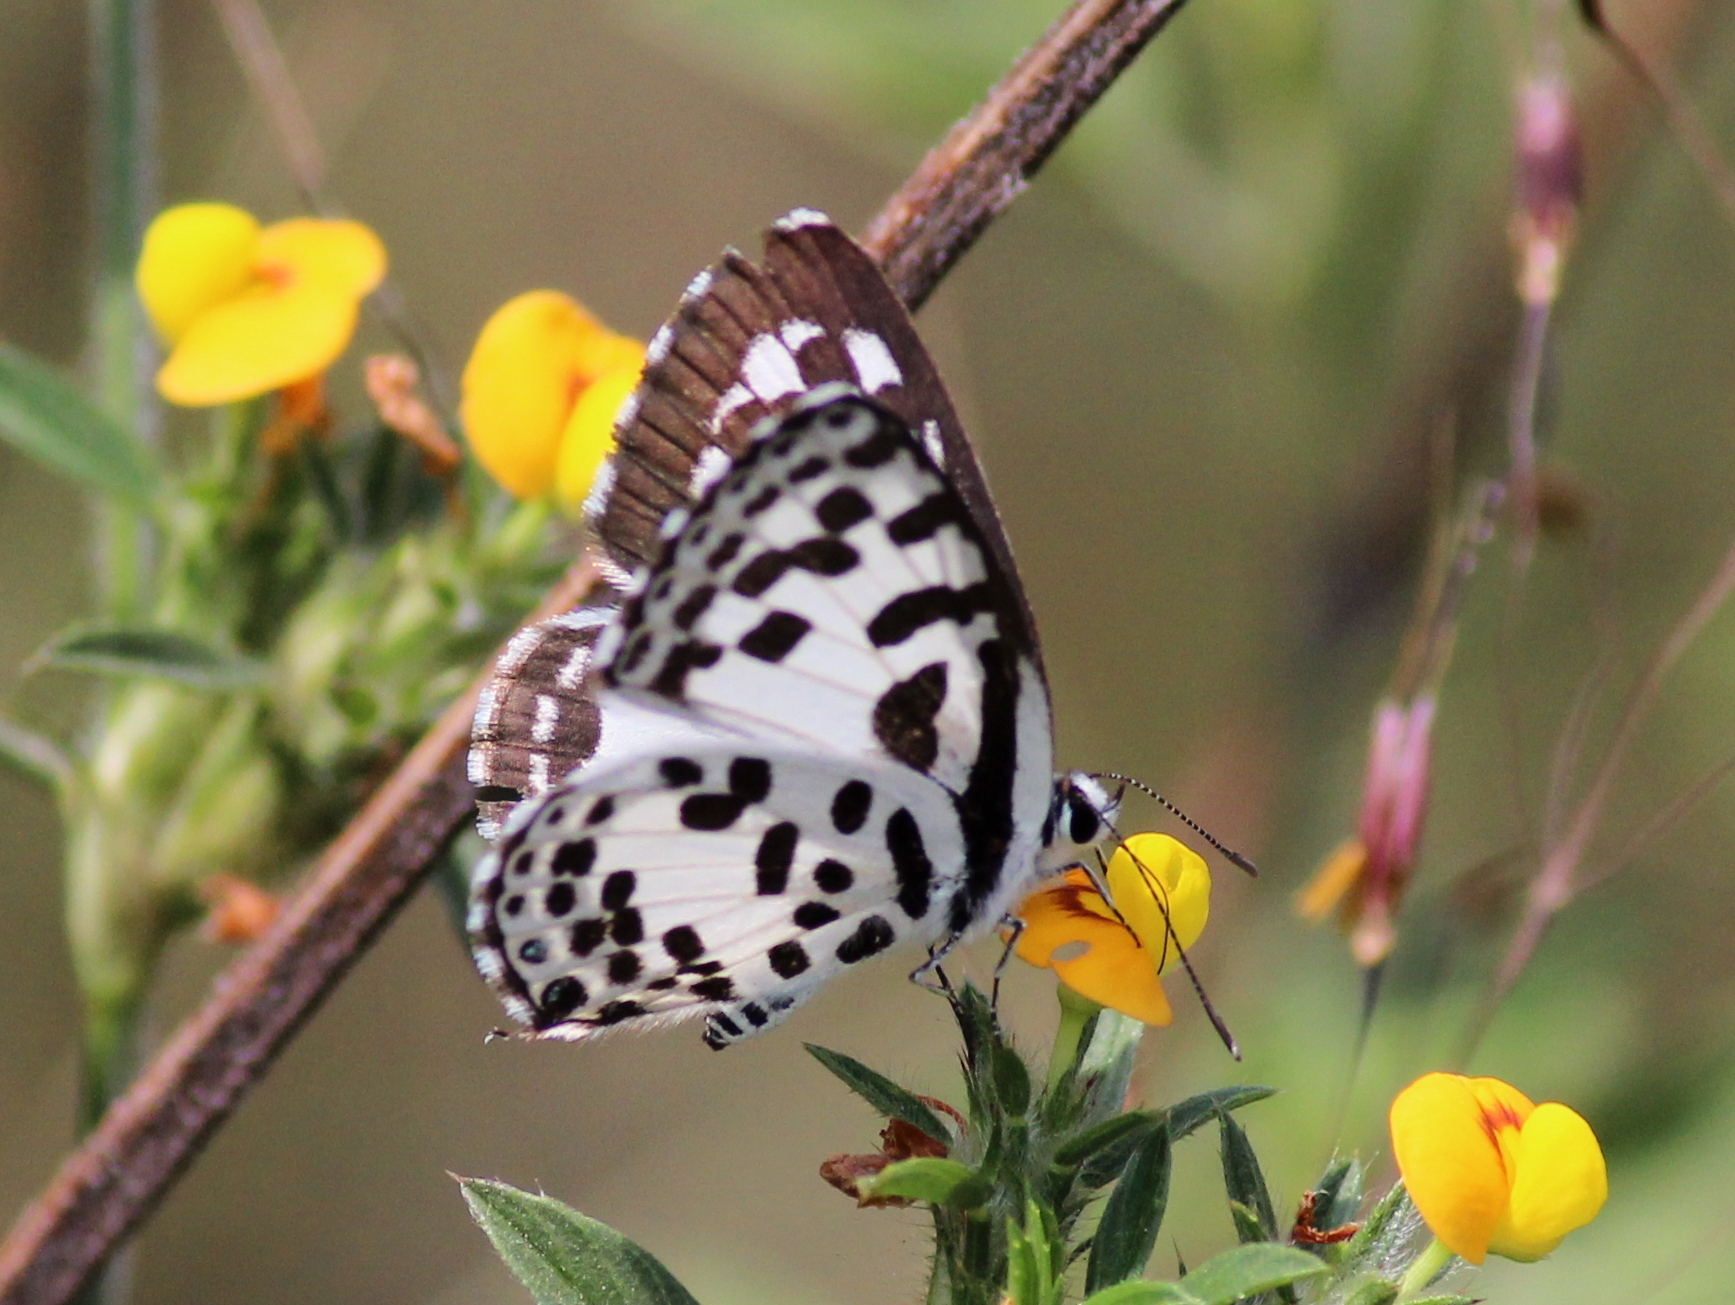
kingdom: Animalia
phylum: Arthropoda
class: Insecta
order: Lepidoptera
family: Lycaenidae
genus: Castalius
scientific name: Castalius rosimon
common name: Common pierrot
